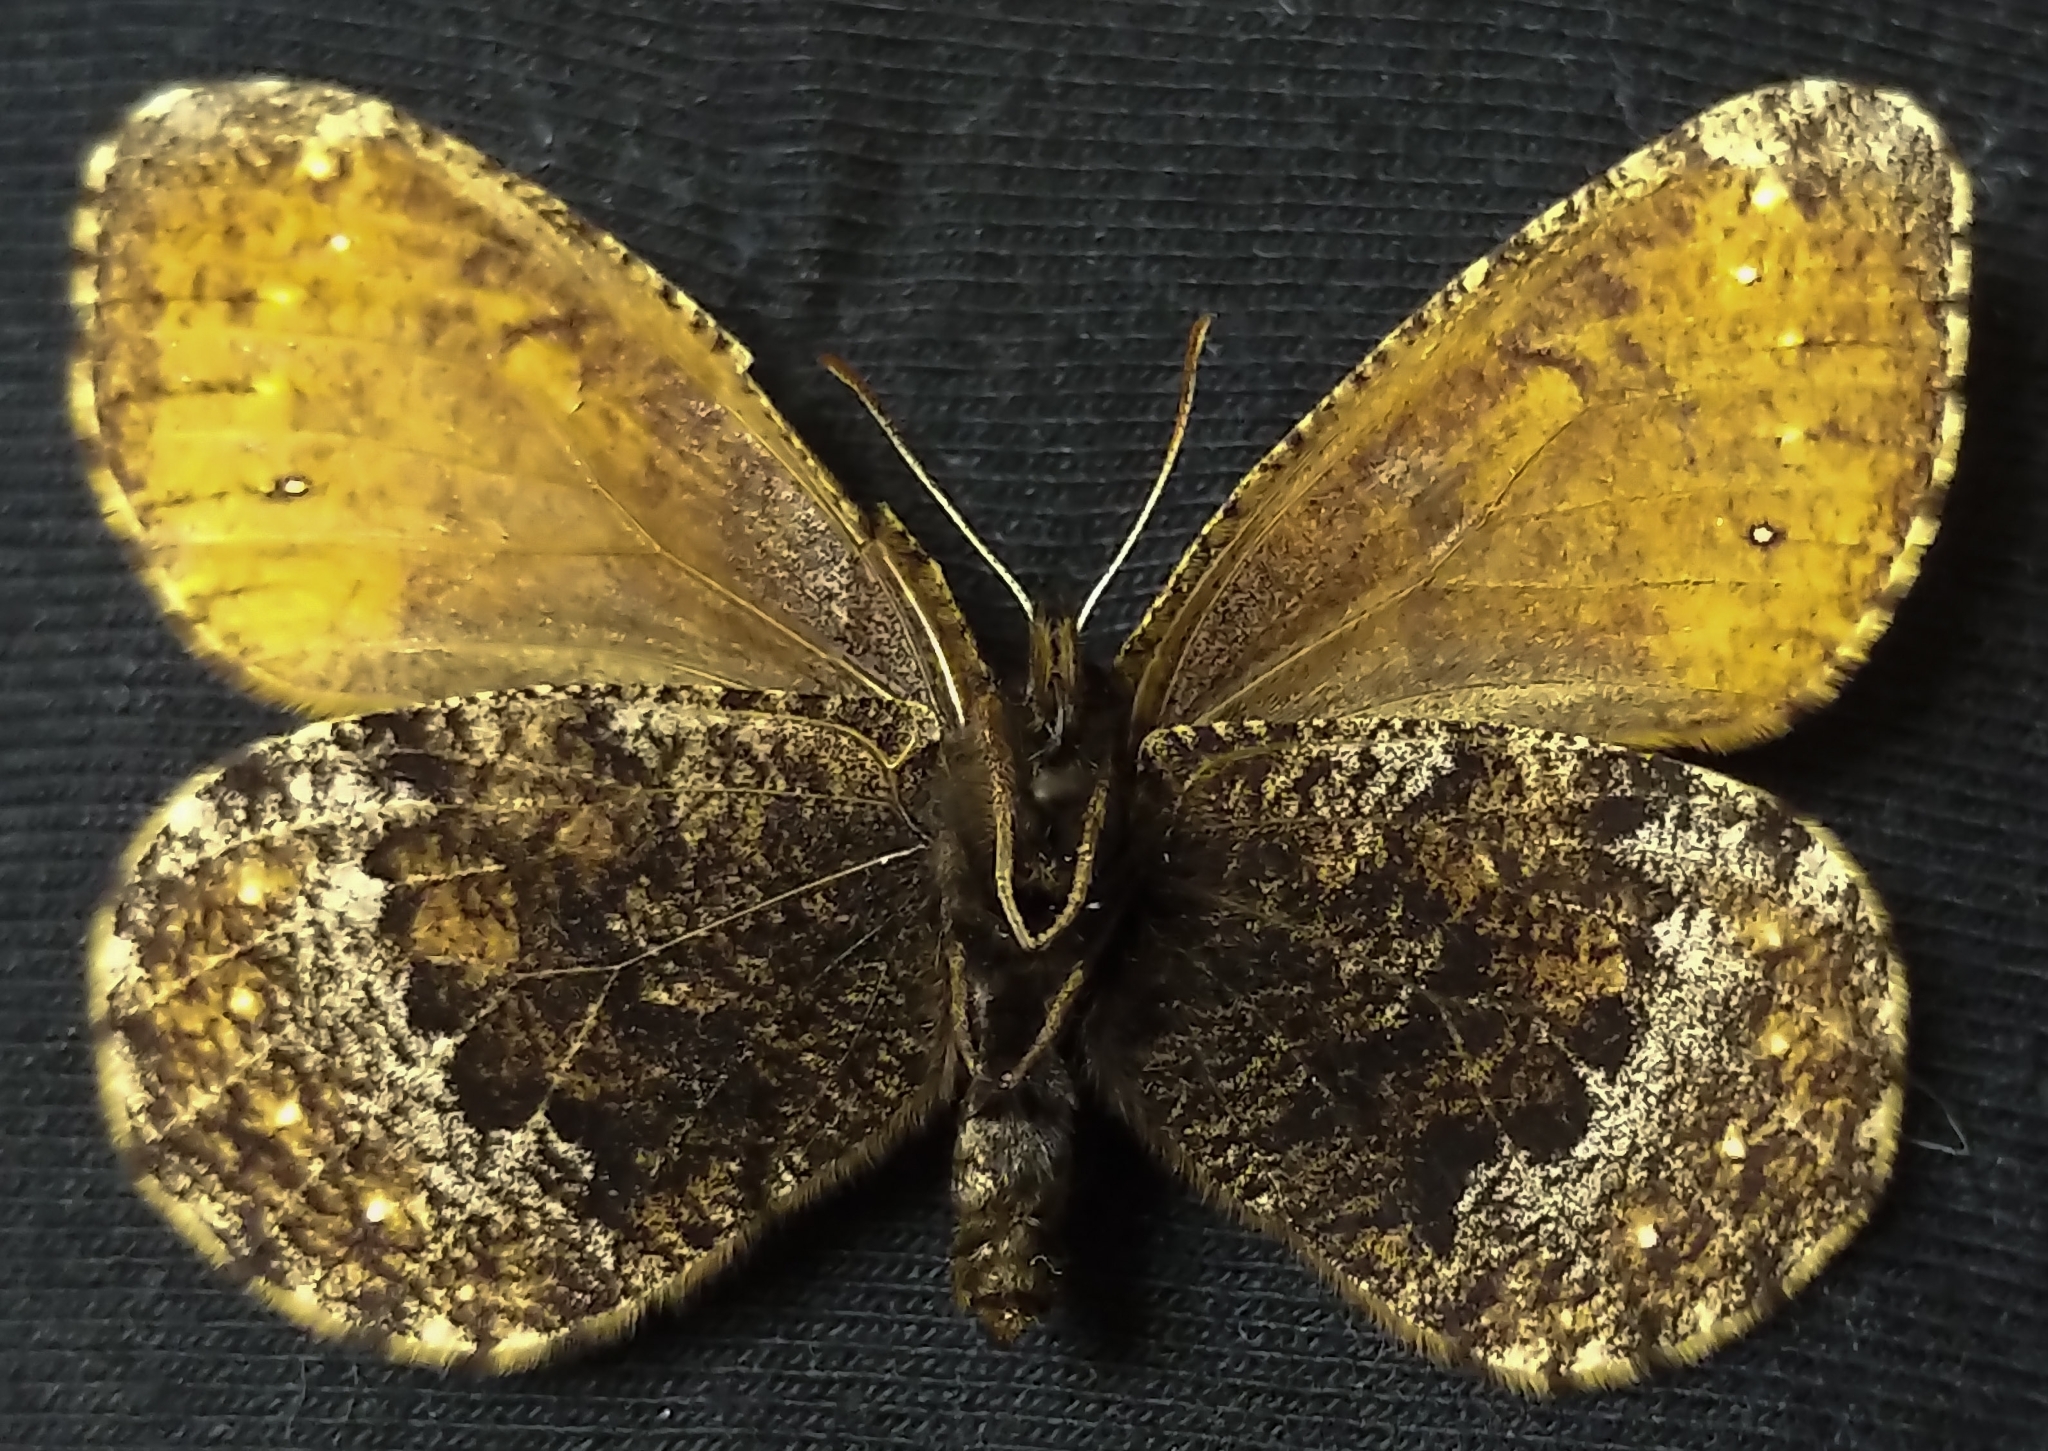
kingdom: Animalia
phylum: Arthropoda
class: Insecta
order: Lepidoptera
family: Nymphalidae
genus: Oeneis
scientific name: Oeneis bore
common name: Arctic grayling
